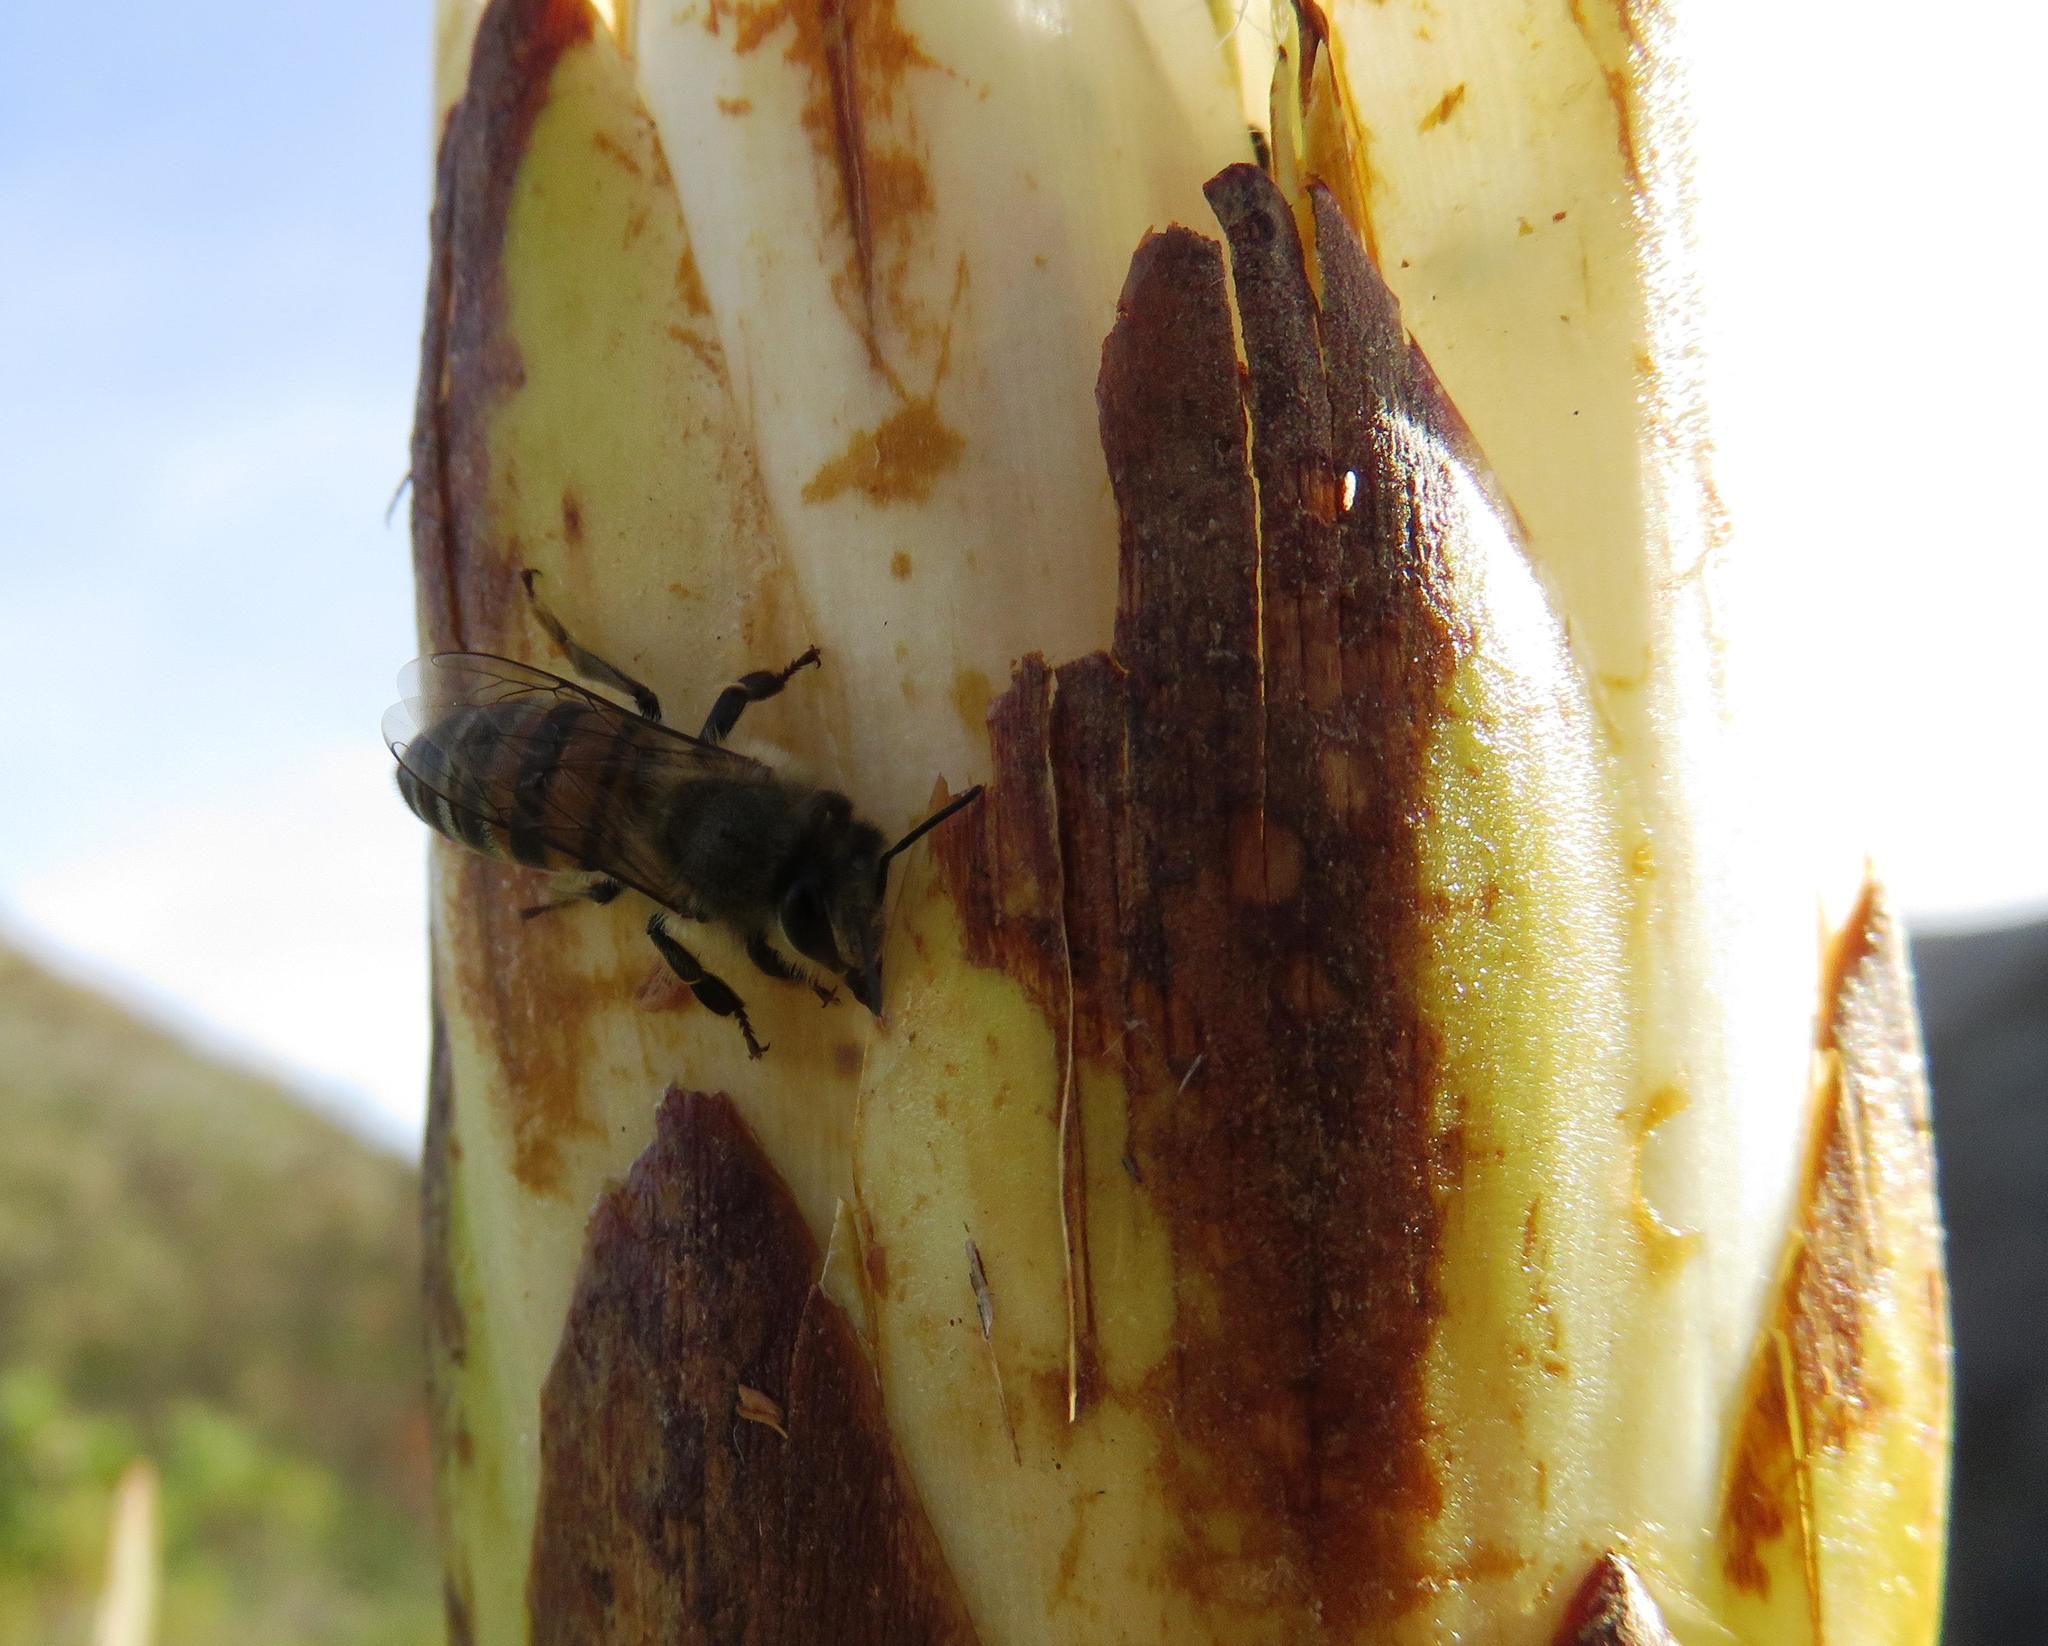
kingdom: Animalia
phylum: Arthropoda
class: Insecta
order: Hymenoptera
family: Apidae
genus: Apis
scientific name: Apis mellifera
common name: Honey bee
